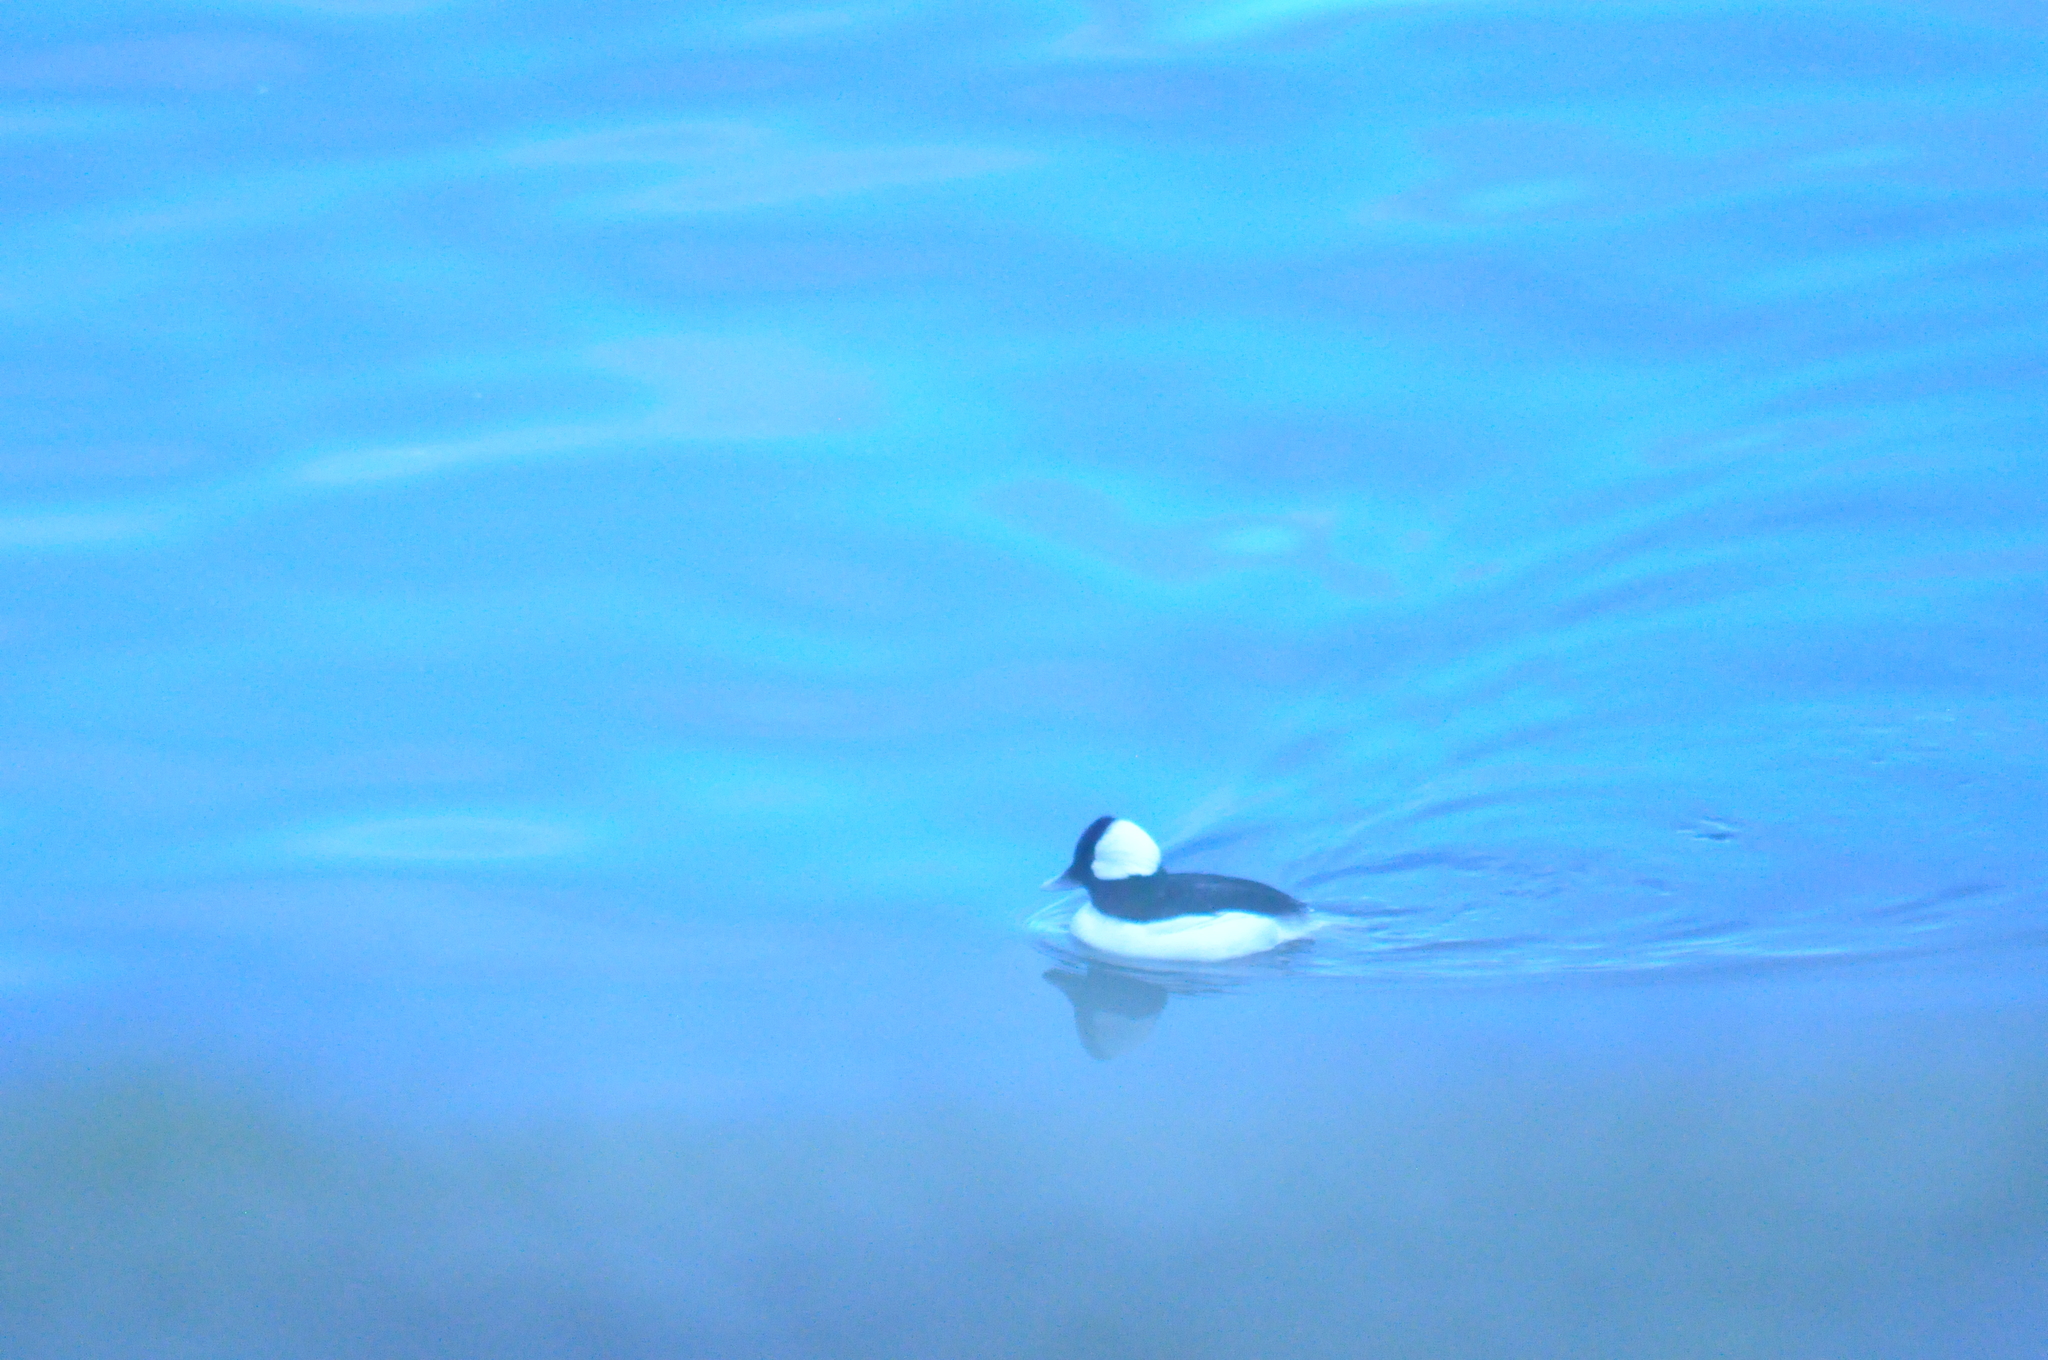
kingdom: Animalia
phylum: Chordata
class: Aves
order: Anseriformes
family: Anatidae
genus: Bucephala
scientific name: Bucephala albeola
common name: Bufflehead
